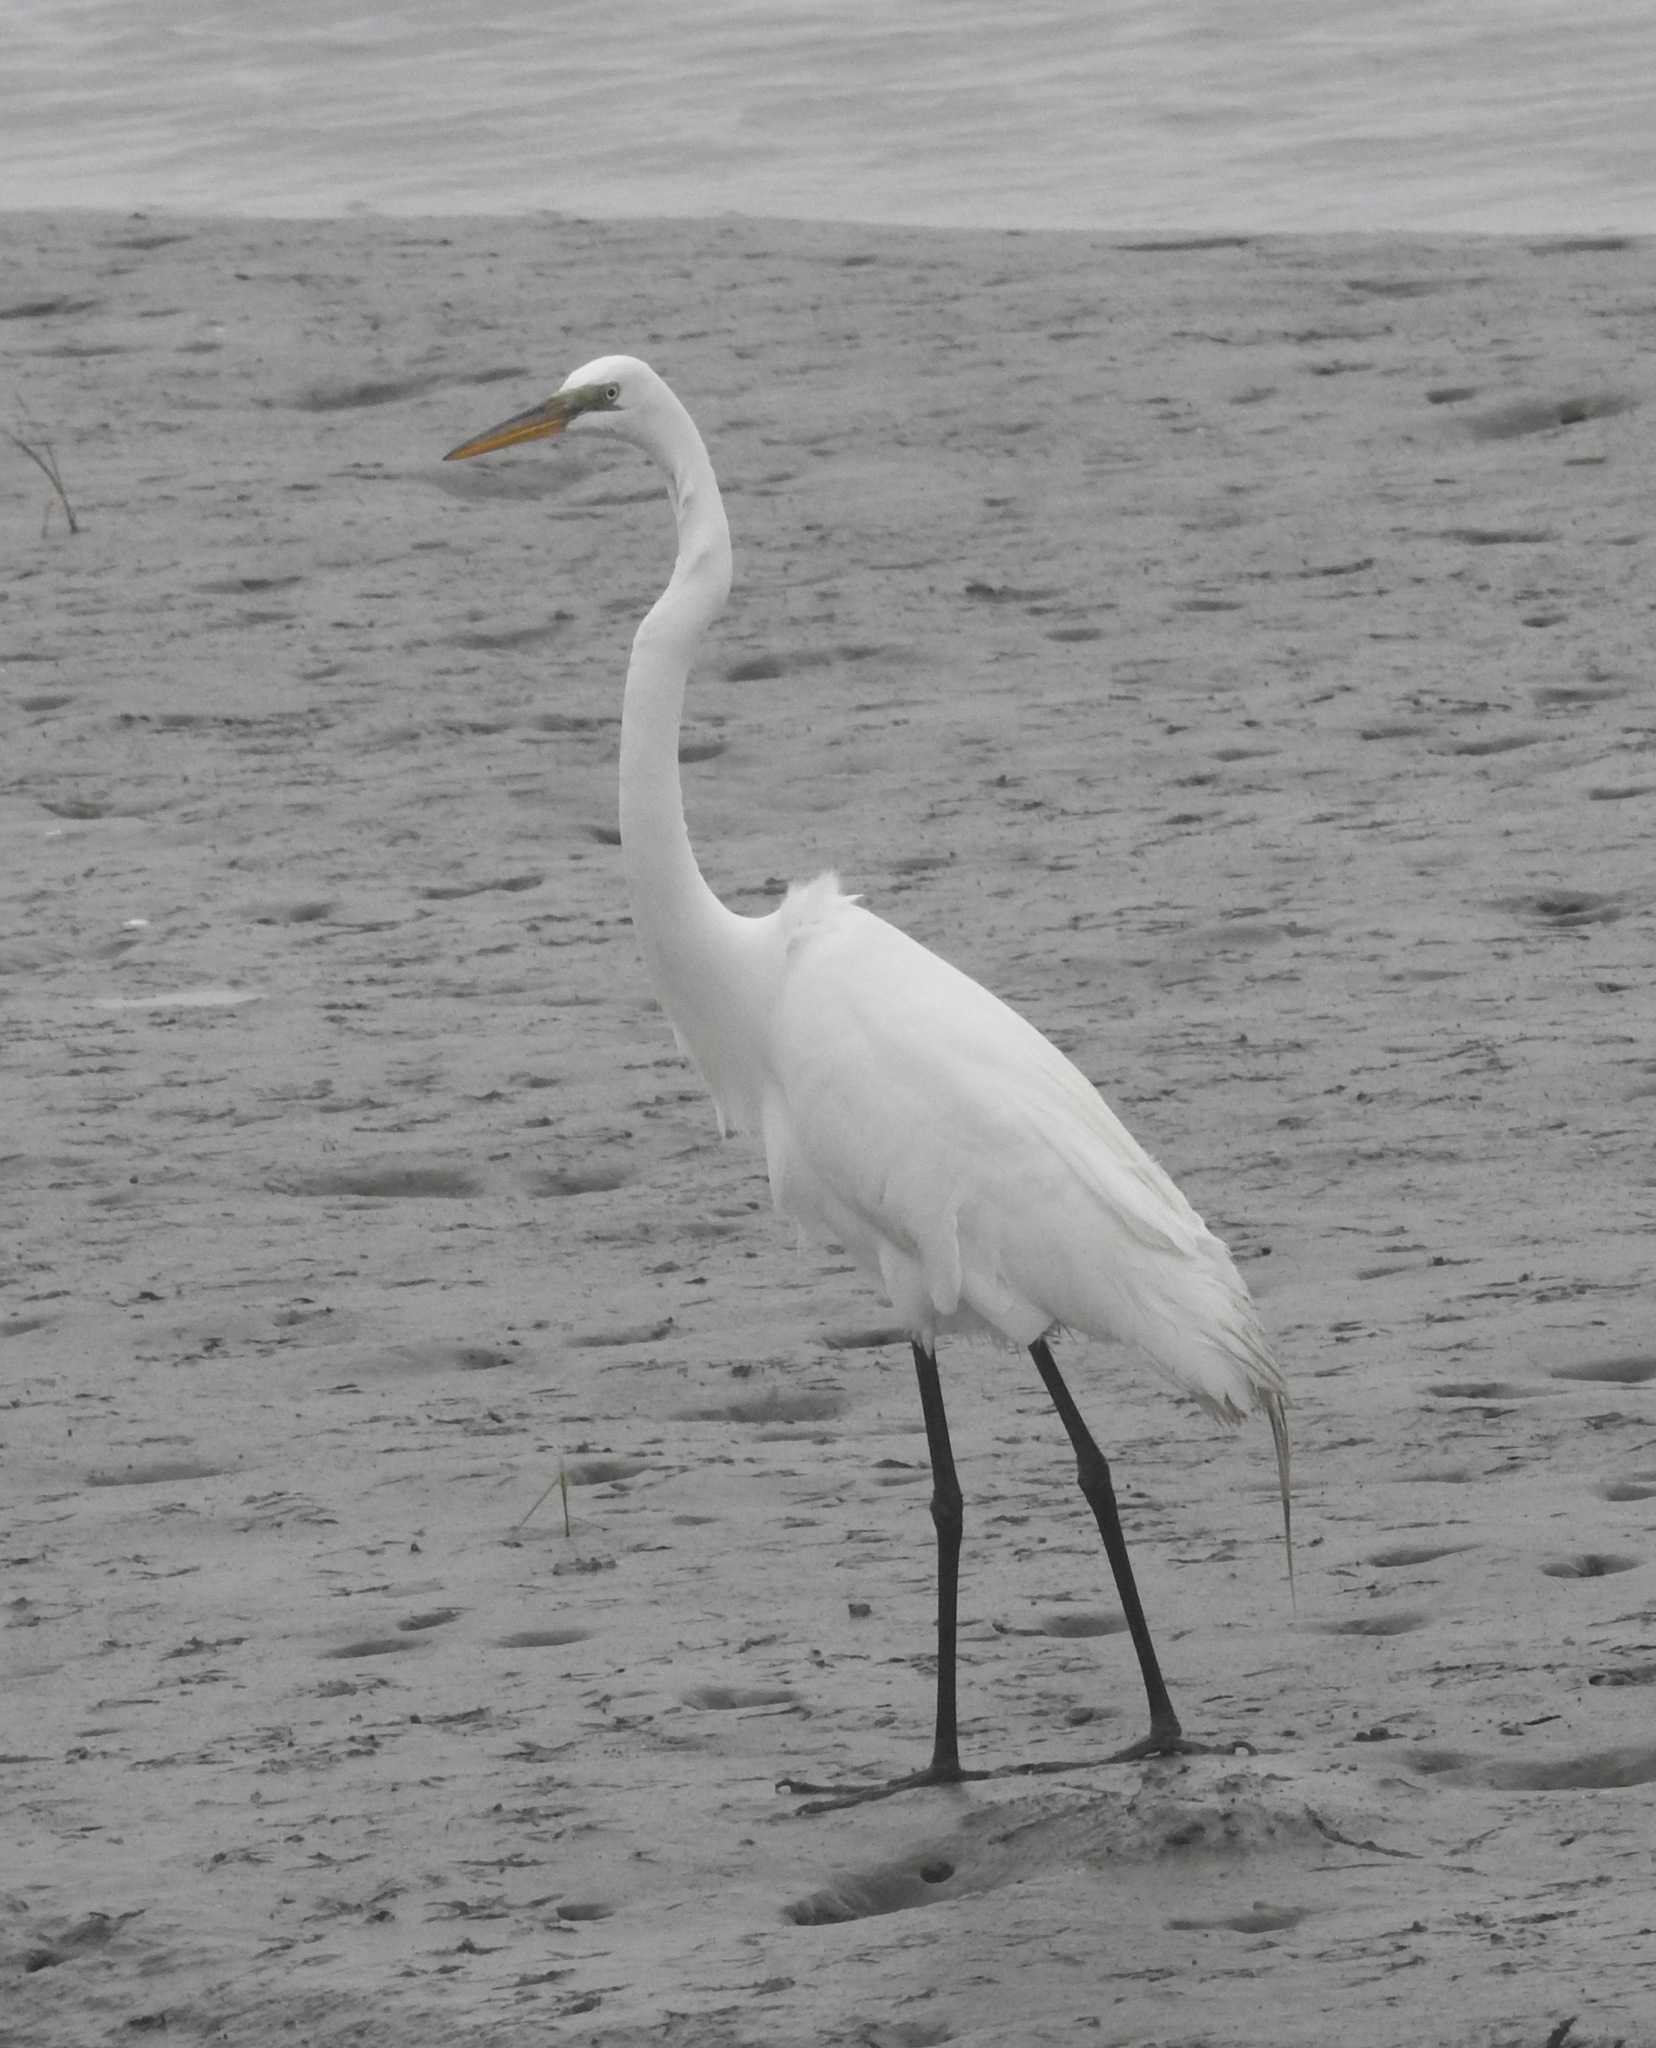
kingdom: Animalia
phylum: Chordata
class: Aves
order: Pelecaniformes
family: Ardeidae
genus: Ardea
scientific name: Ardea alba
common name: Great egret
